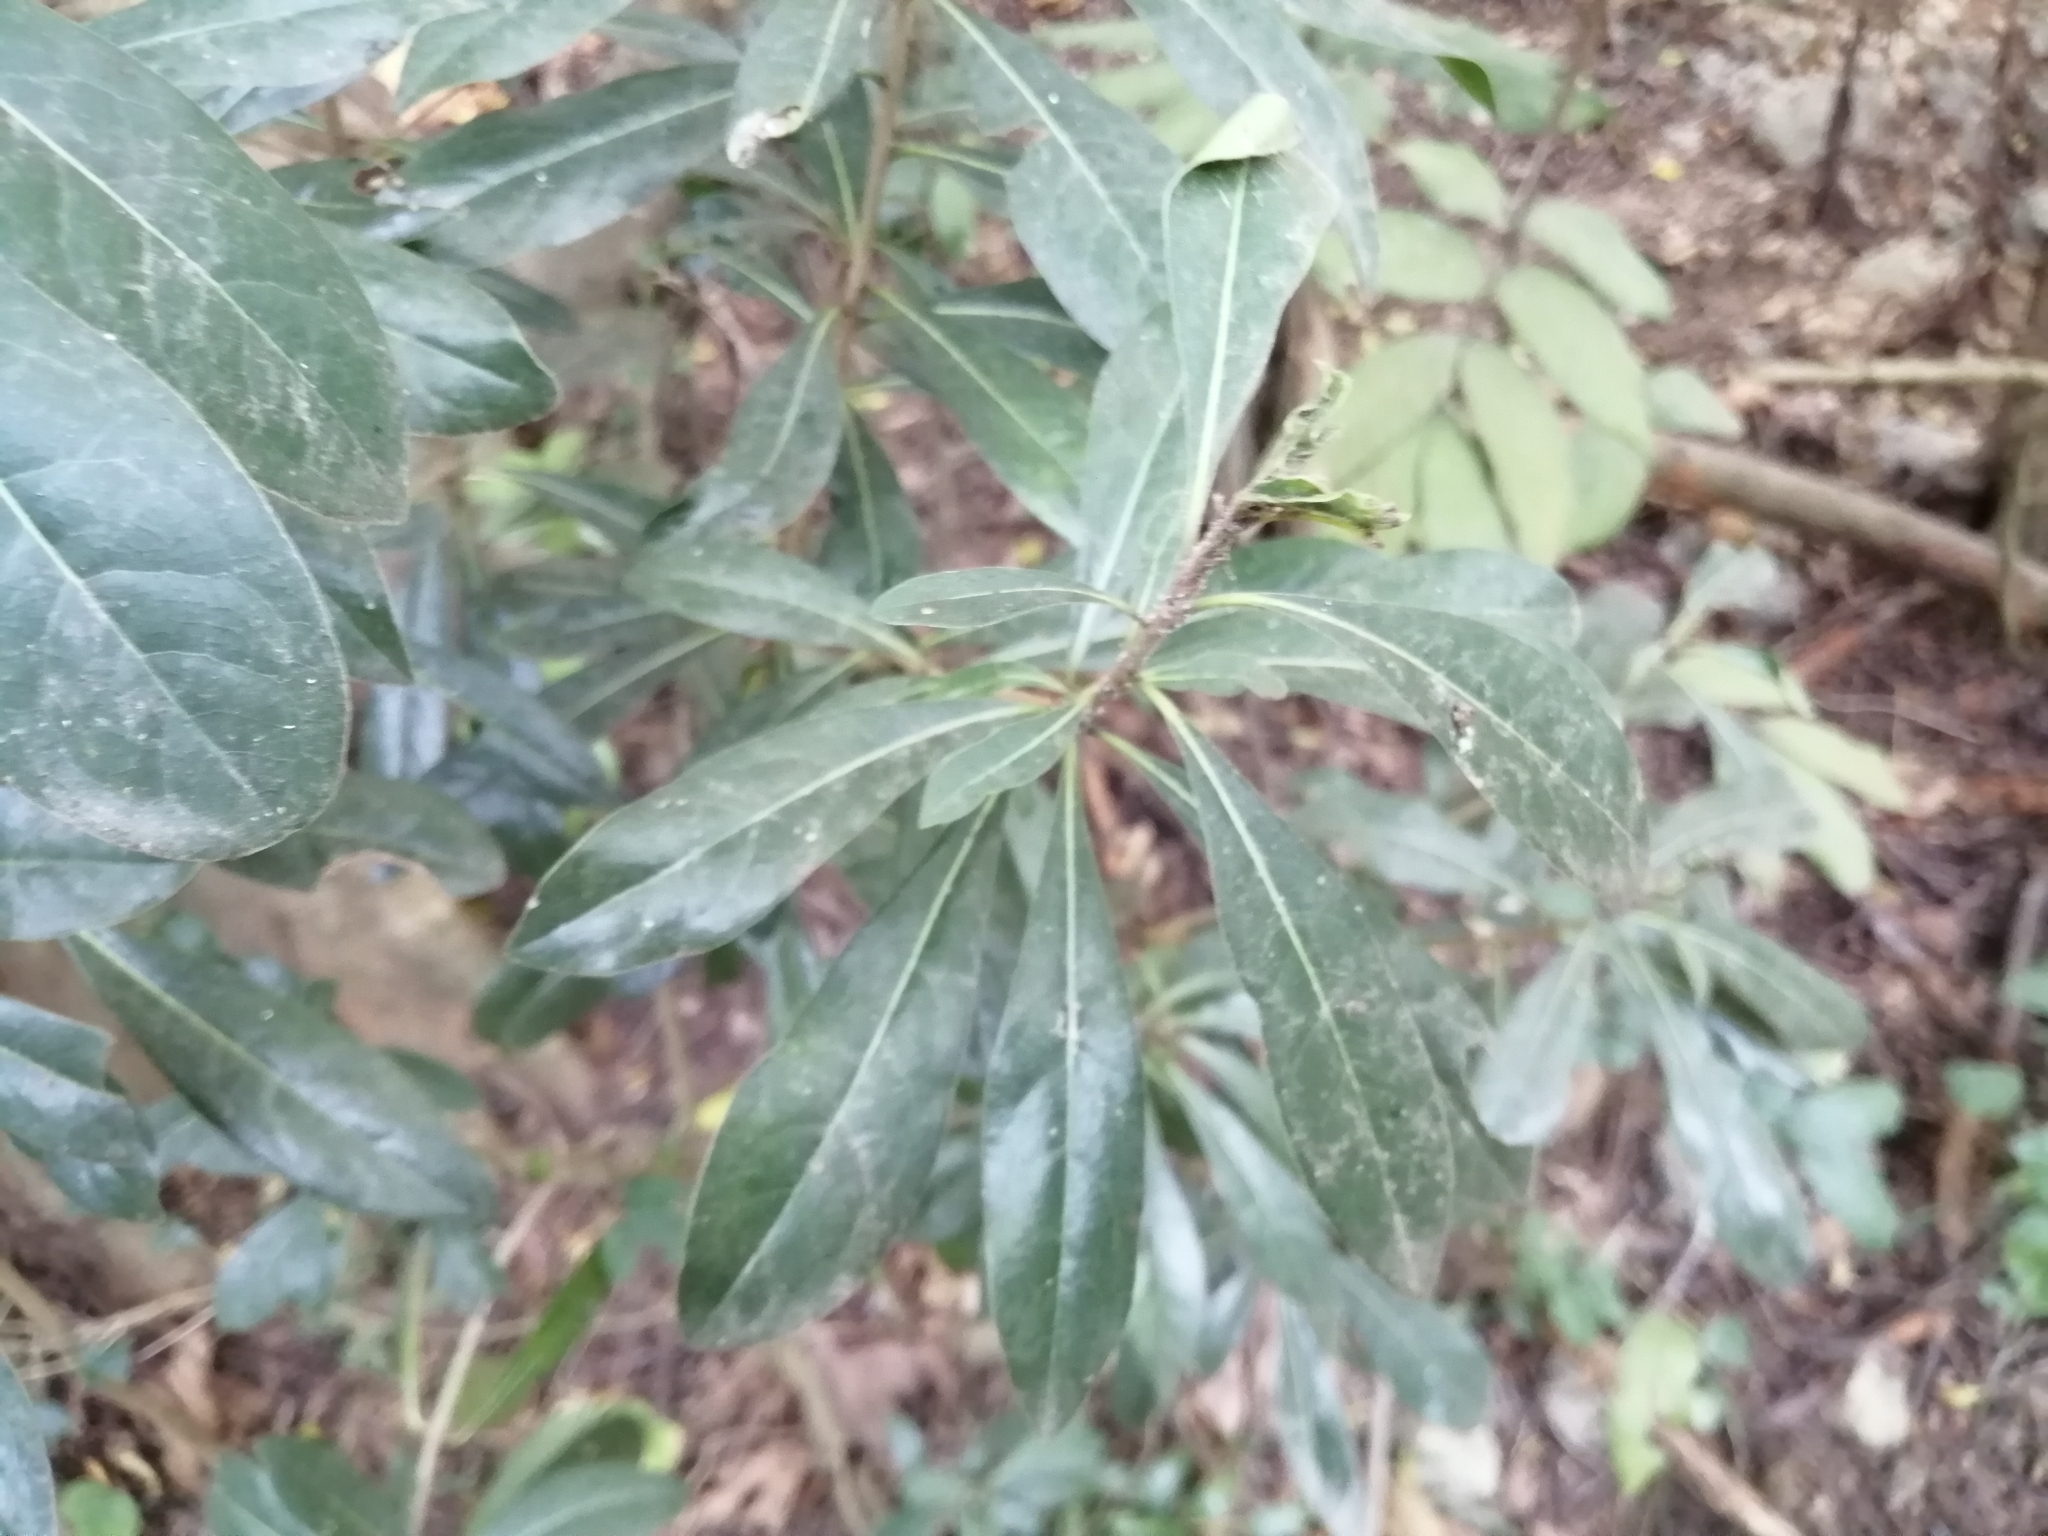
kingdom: Plantae
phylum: Tracheophyta
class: Magnoliopsida
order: Apiales
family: Pittosporaceae
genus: Pittosporum
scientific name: Pittosporum pentandrum
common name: Taiwanese cheesewood
